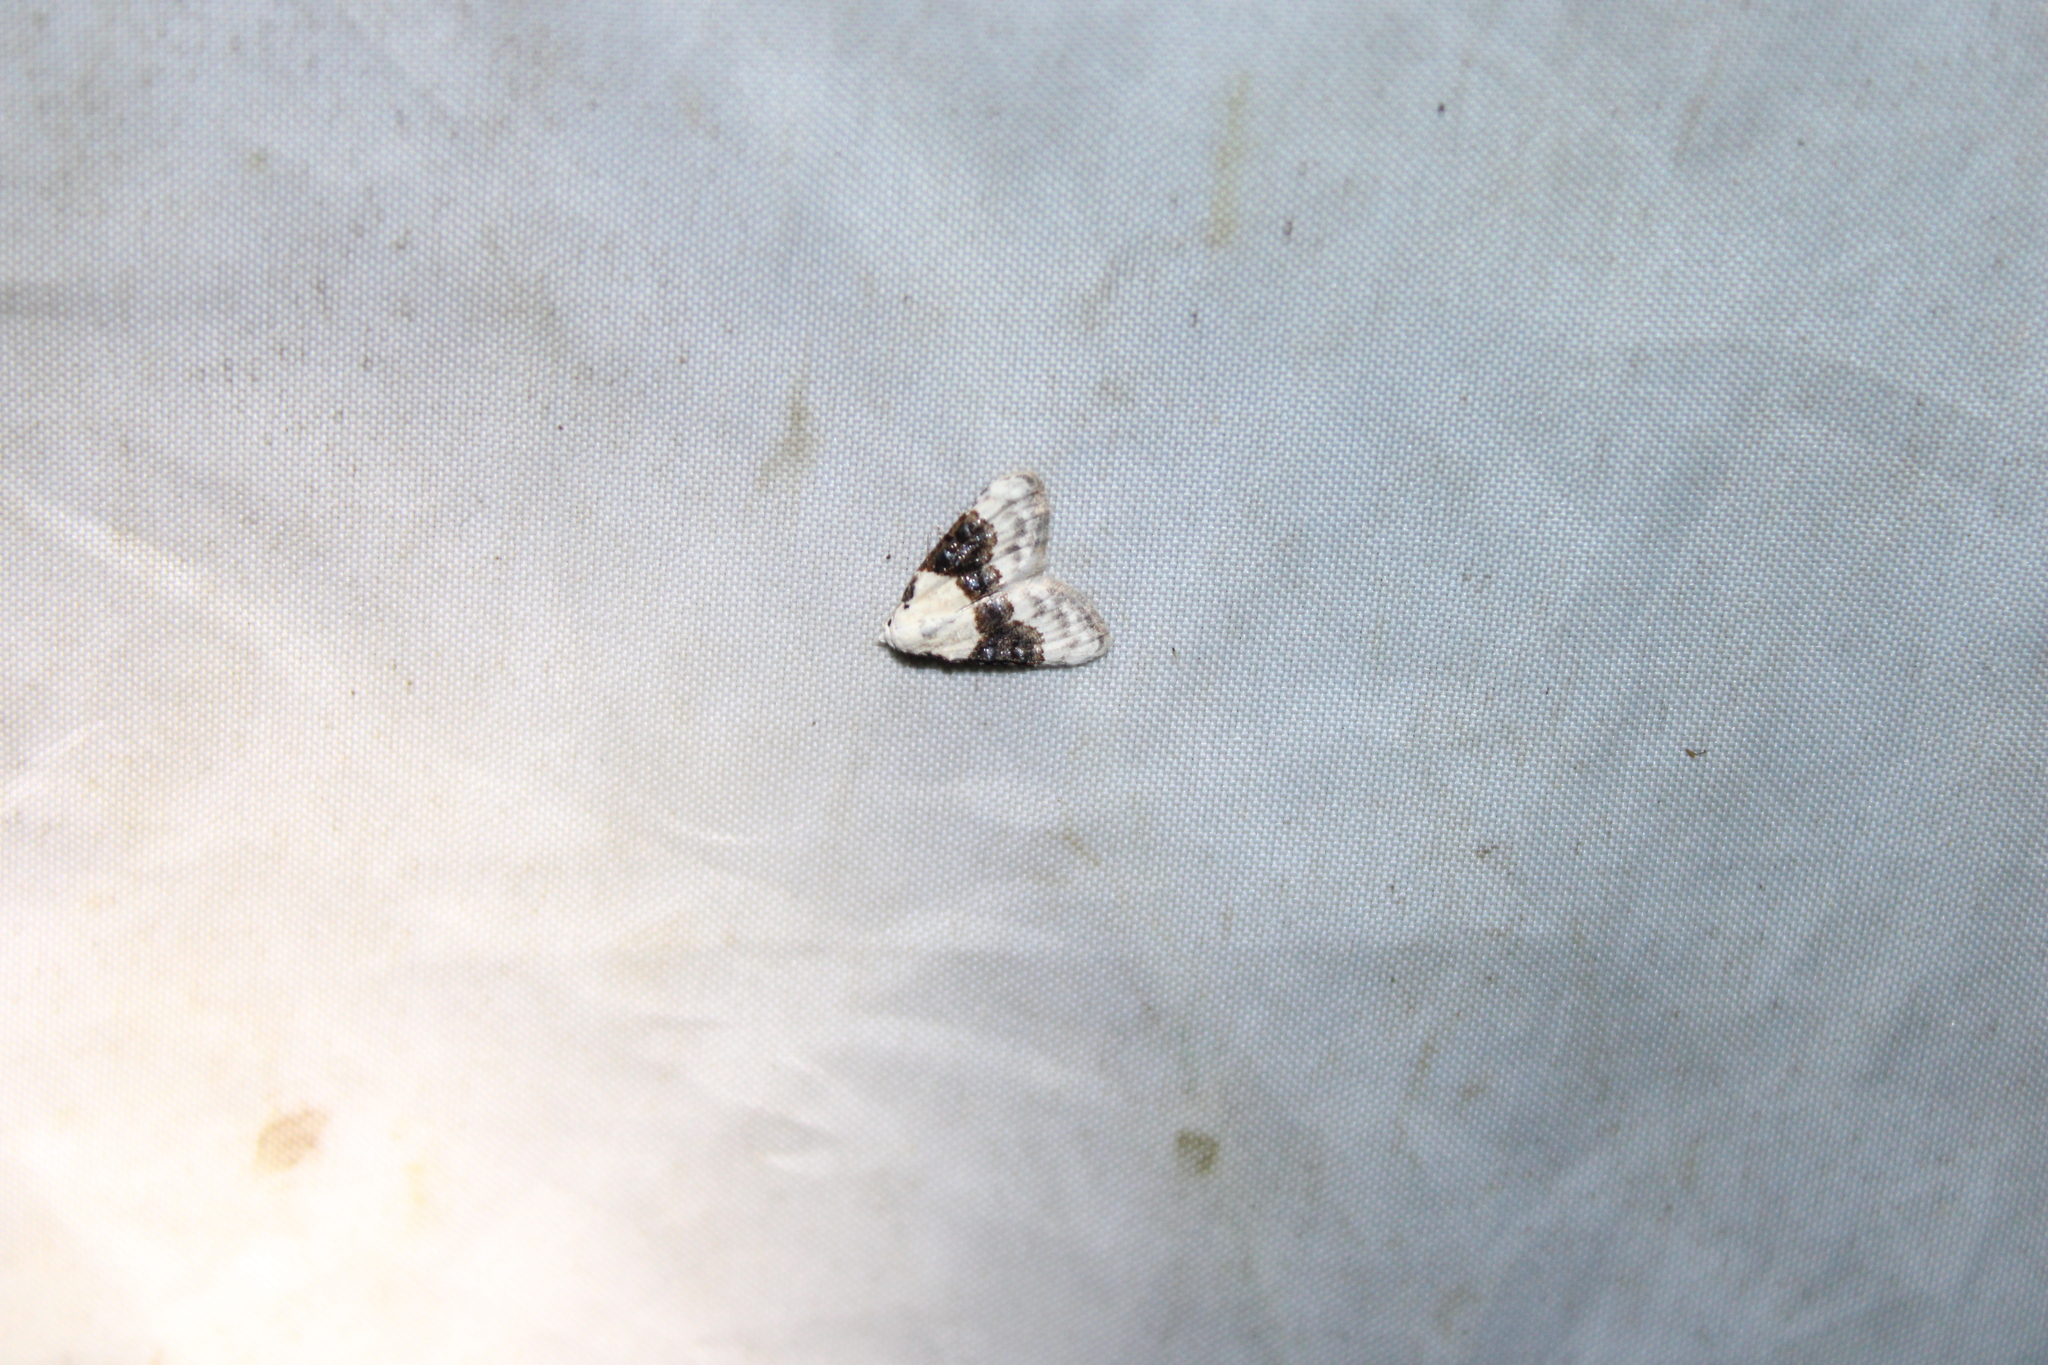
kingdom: Animalia
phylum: Arthropoda
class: Insecta
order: Lepidoptera
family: Nolidae
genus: Nola
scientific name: Nola pustulata
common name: Sharp-blotched nola moth
